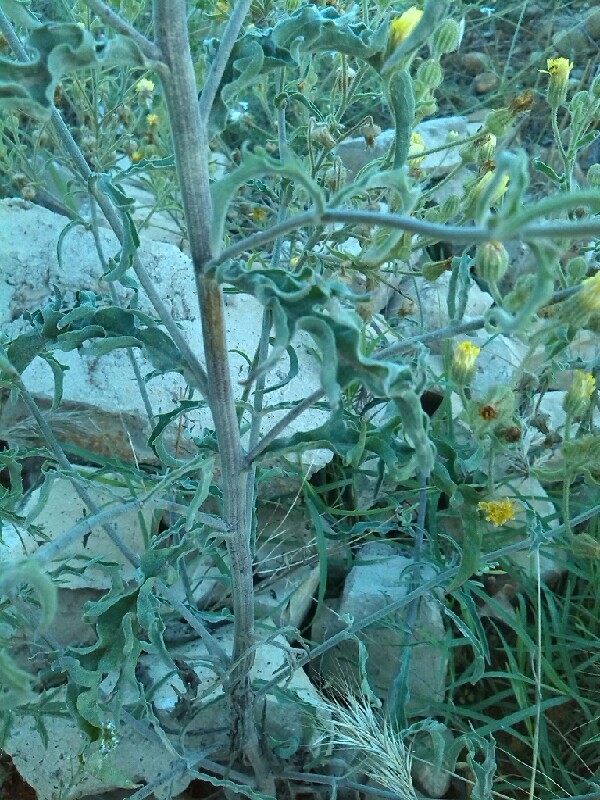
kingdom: Plantae
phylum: Tracheophyta
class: Magnoliopsida
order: Asterales
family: Asteraceae
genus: Andryala
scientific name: Andryala integrifolia
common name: Common andryala
